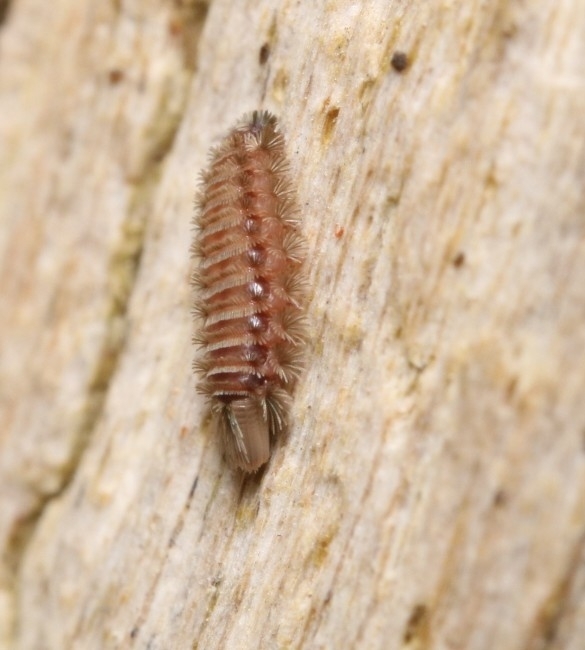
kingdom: Animalia
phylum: Arthropoda
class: Diplopoda
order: Polyxenida
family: Polyxenidae
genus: Polyxenus
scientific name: Polyxenus lagurus
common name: Bristly millipede
